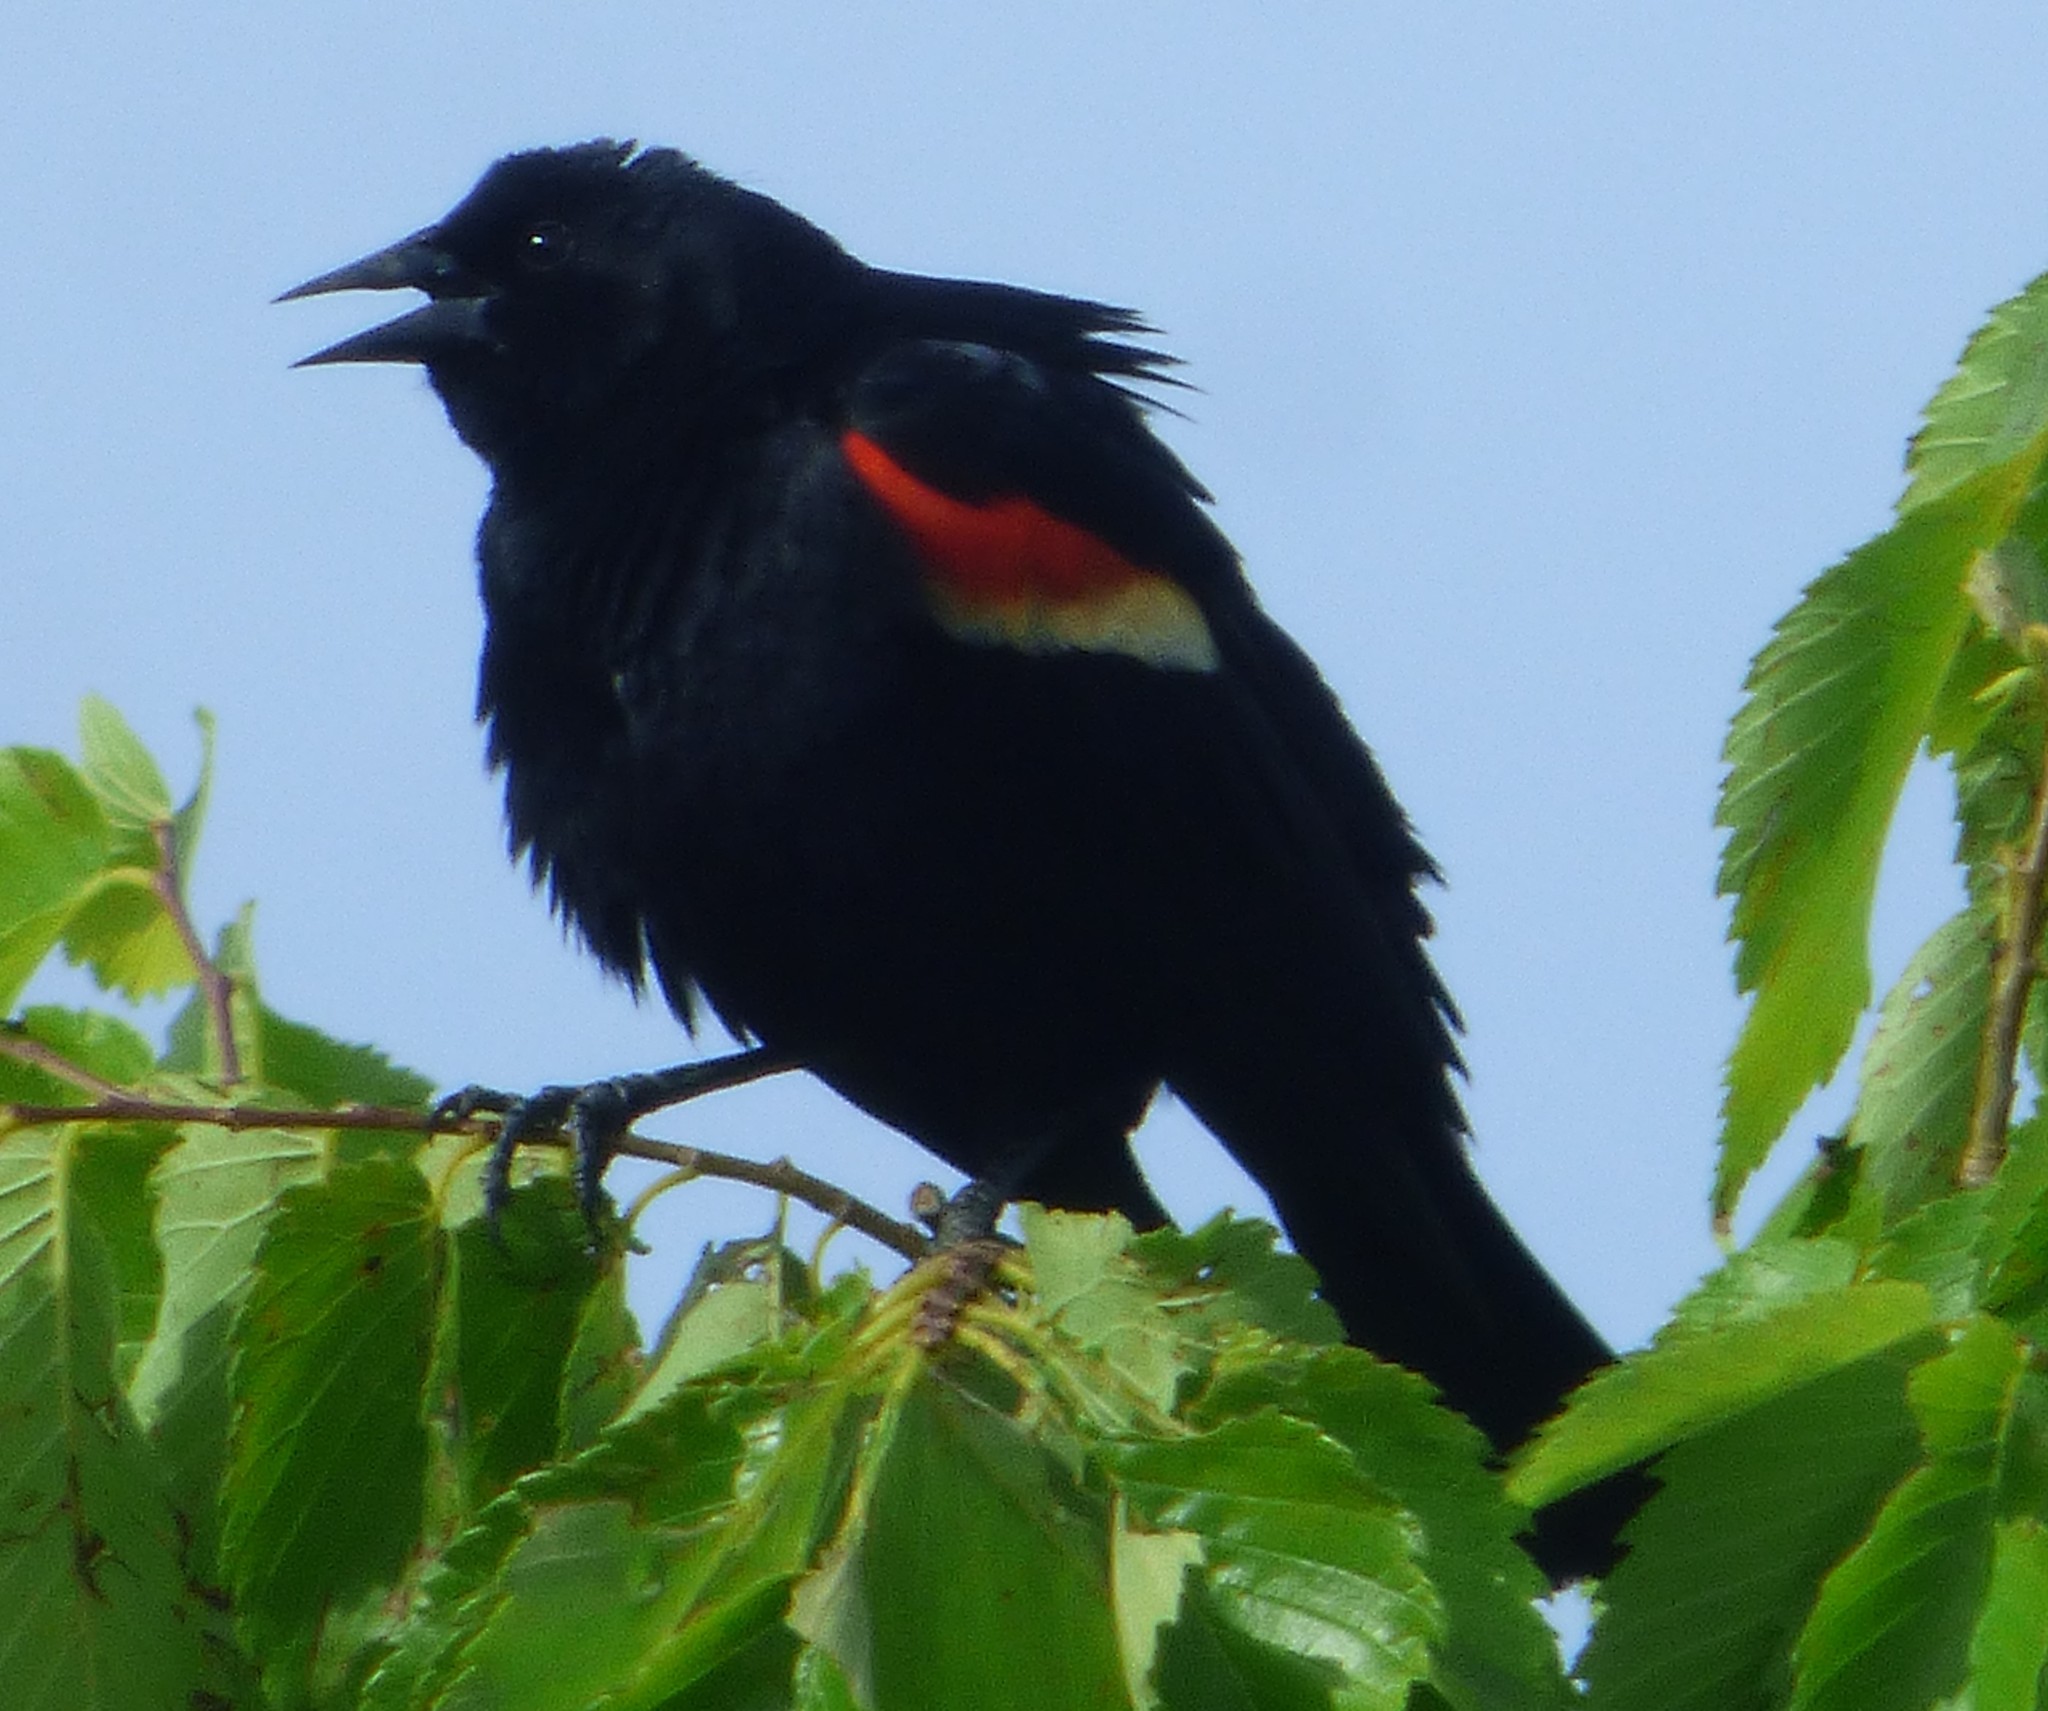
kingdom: Animalia
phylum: Chordata
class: Aves
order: Passeriformes
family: Icteridae
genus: Agelaius
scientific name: Agelaius phoeniceus
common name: Red-winged blackbird
